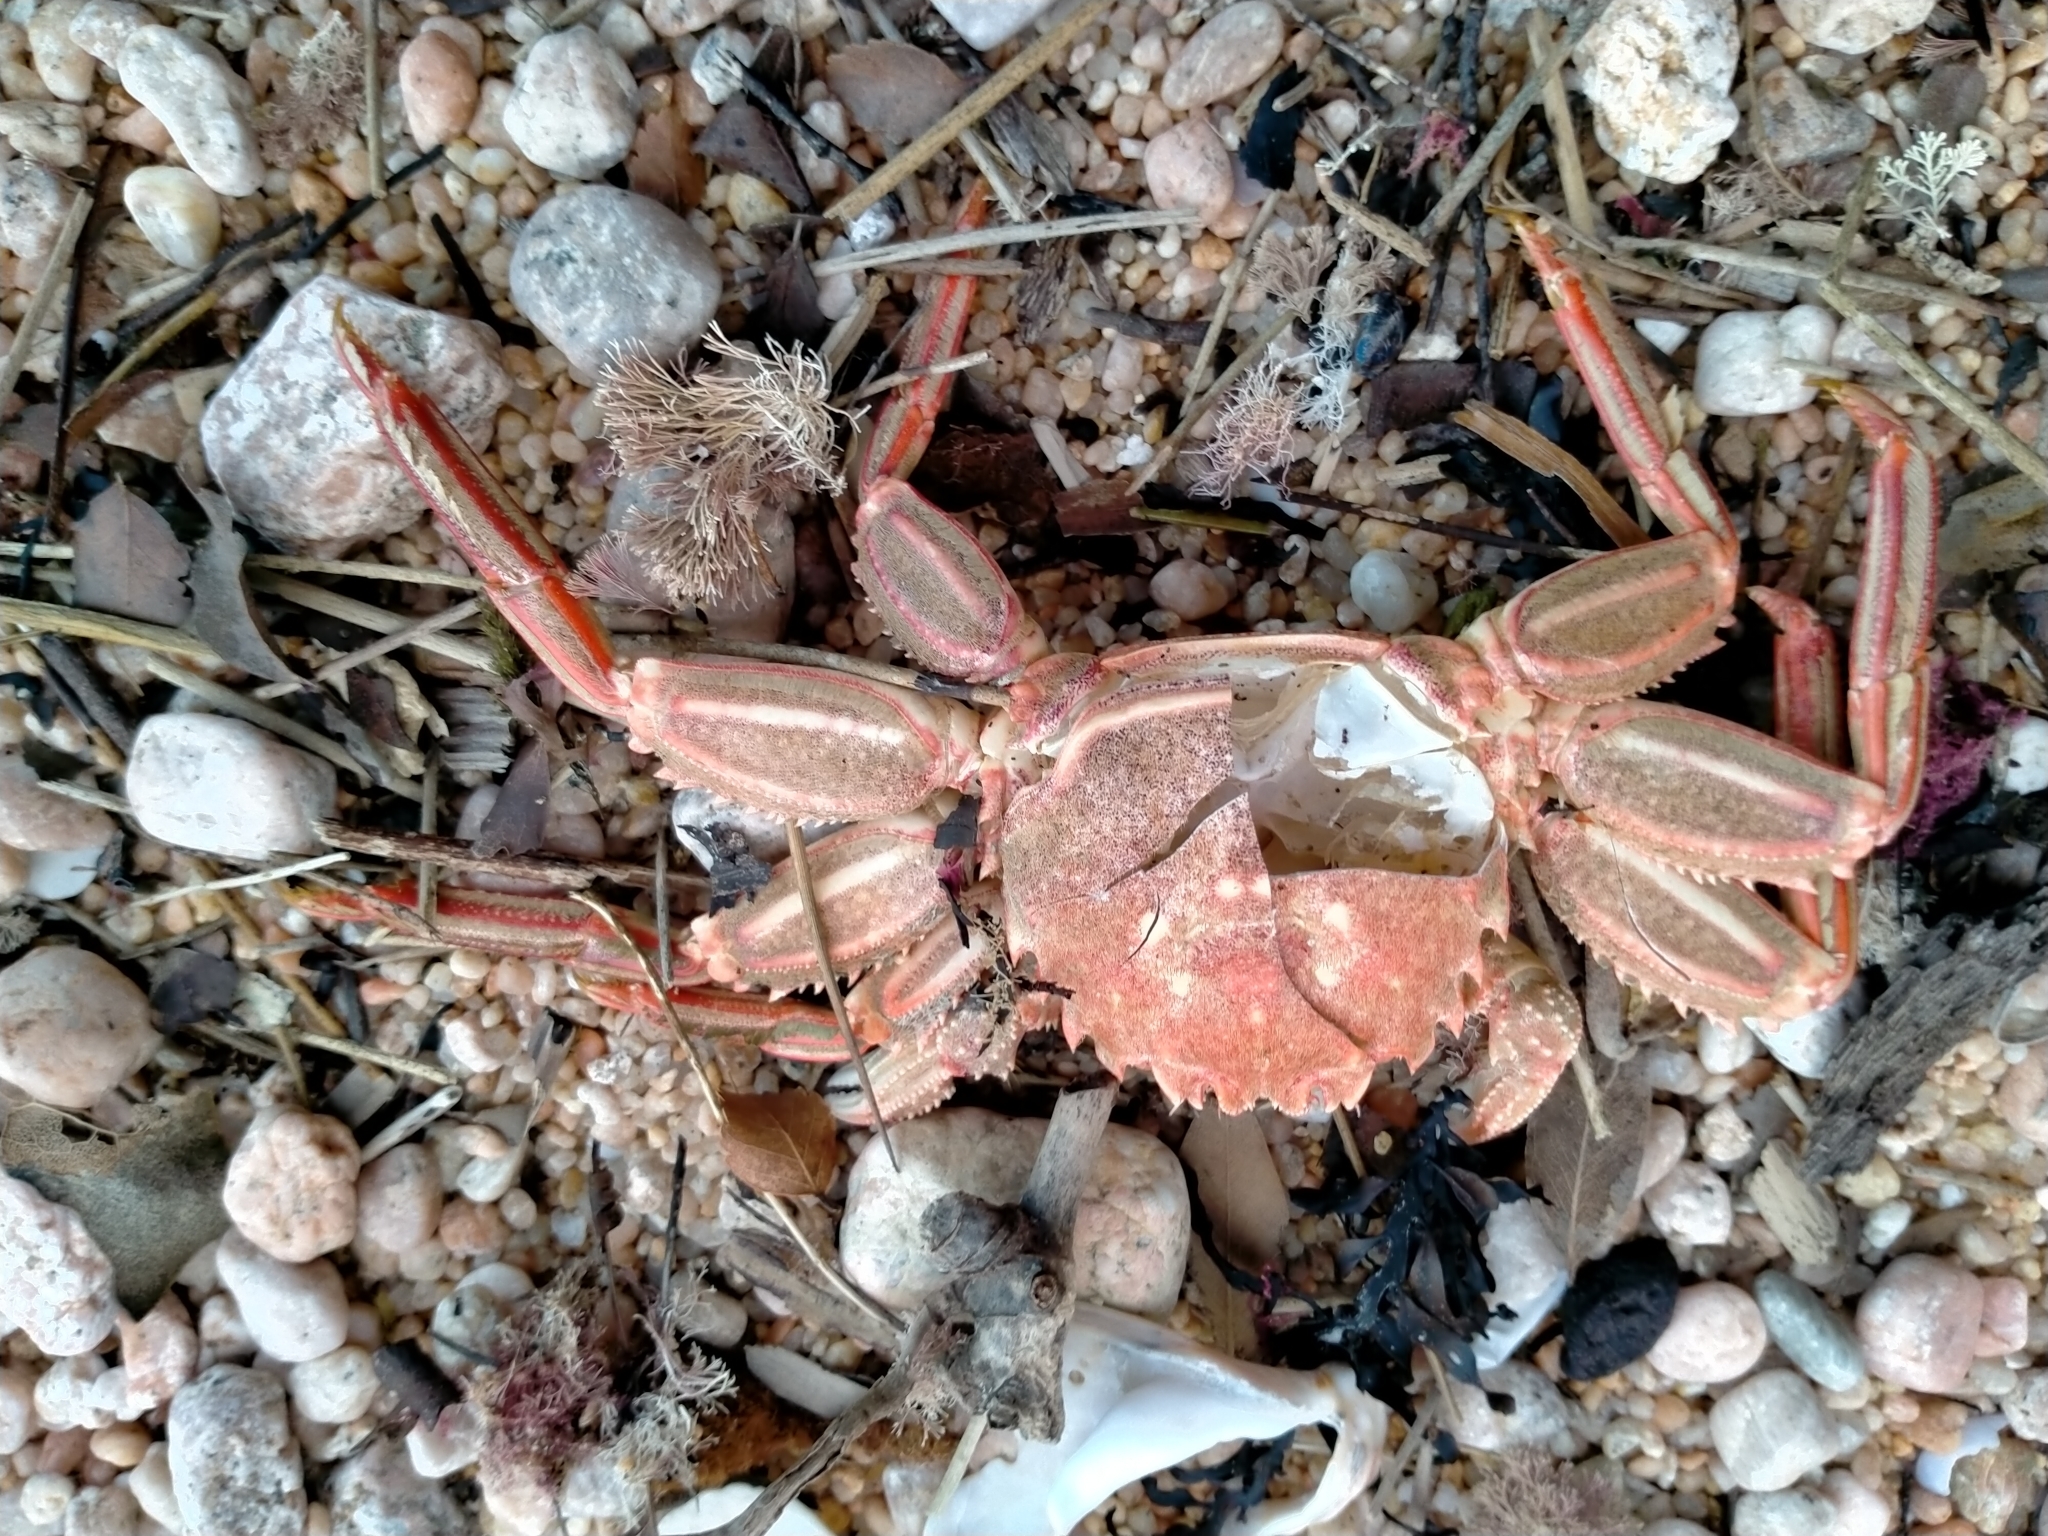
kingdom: Animalia
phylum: Arthropoda
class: Malacostraca
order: Decapoda
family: Plagusiidae
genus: Guinusia
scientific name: Guinusia chabrus
